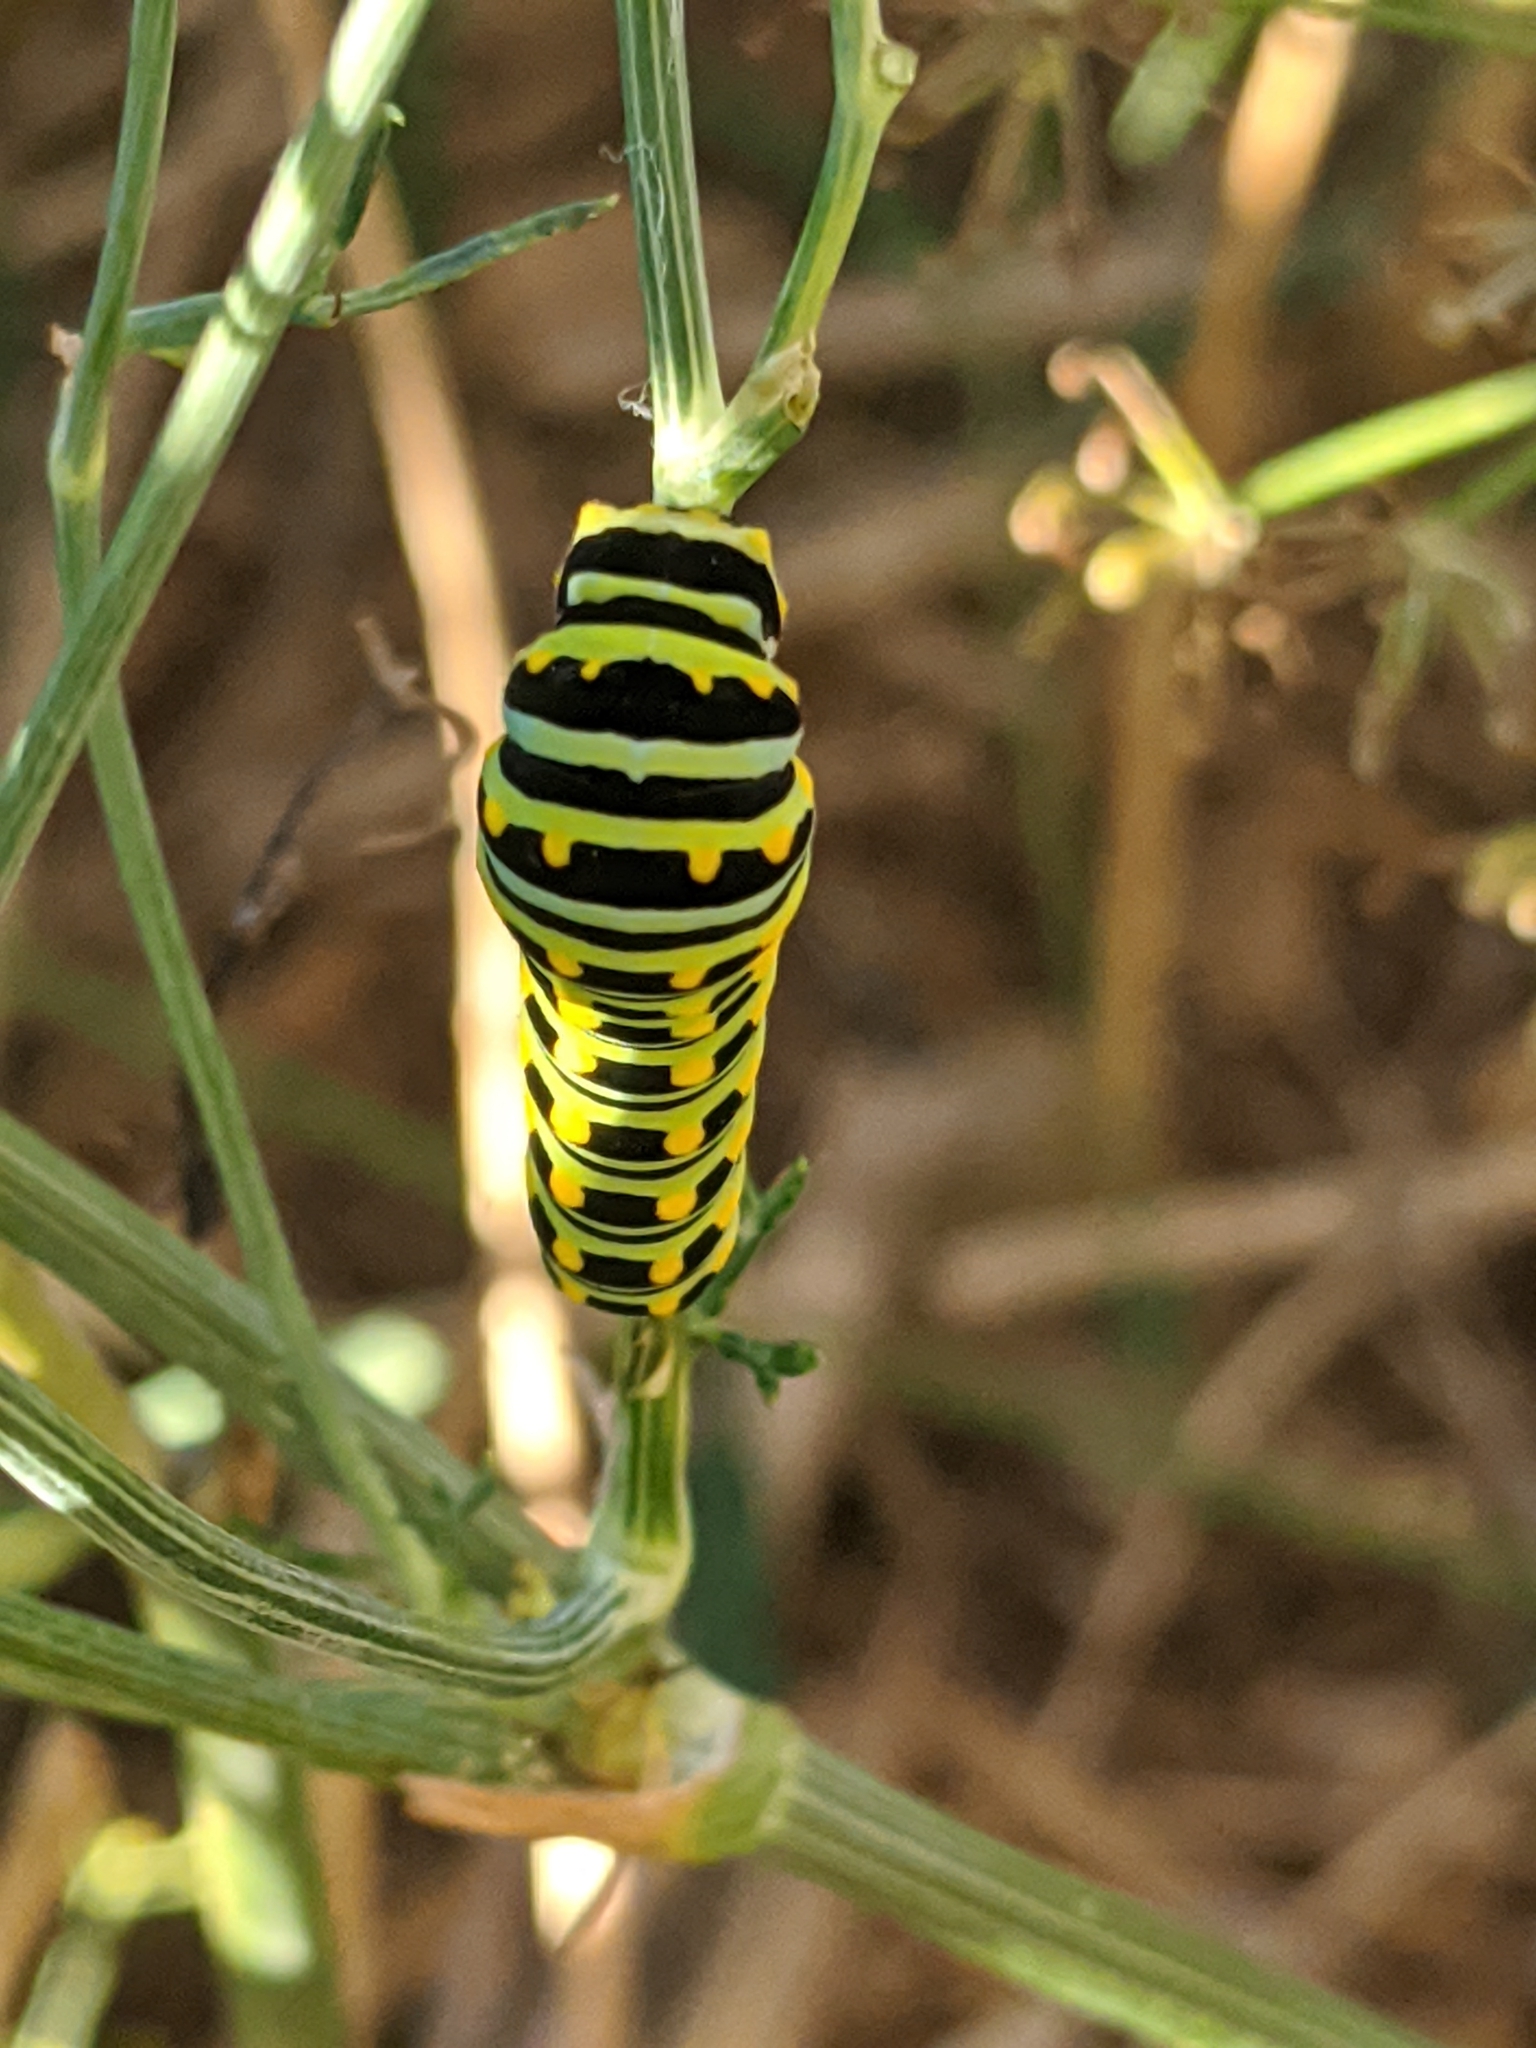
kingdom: Animalia
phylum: Arthropoda
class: Insecta
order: Lepidoptera
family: Papilionidae
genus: Papilio
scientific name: Papilio polyxenes
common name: Black swallowtail
